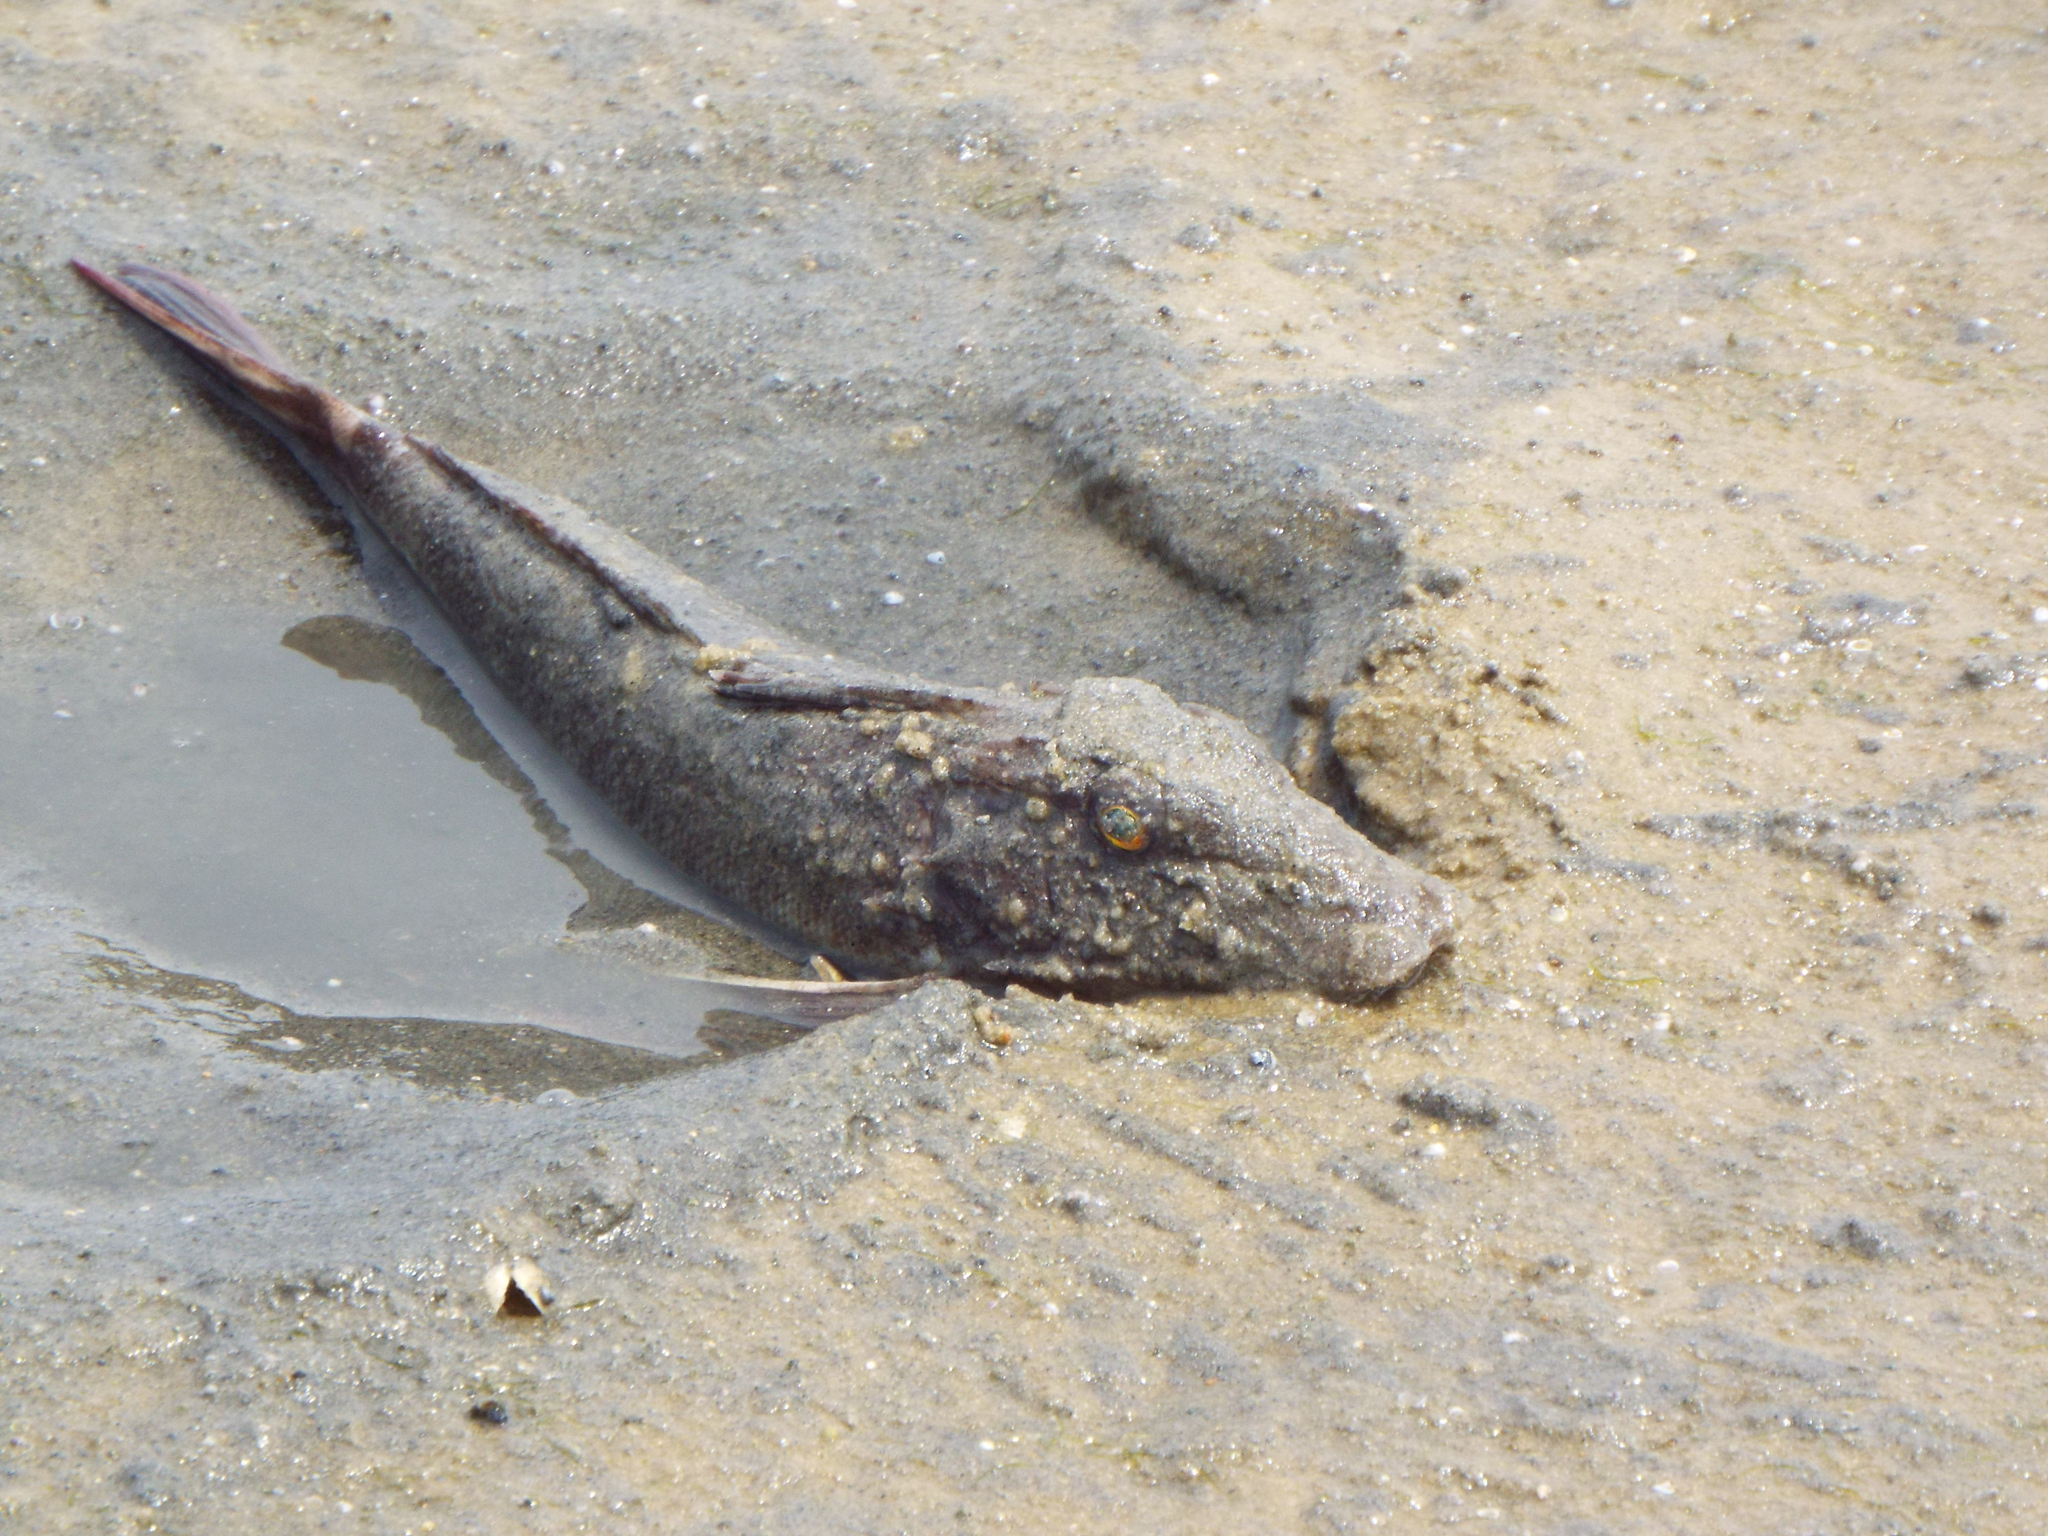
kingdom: Animalia
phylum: Chordata
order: Scorpaeniformes
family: Triglidae
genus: Prionotus
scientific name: Prionotus carolinus
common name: Northern searobin
